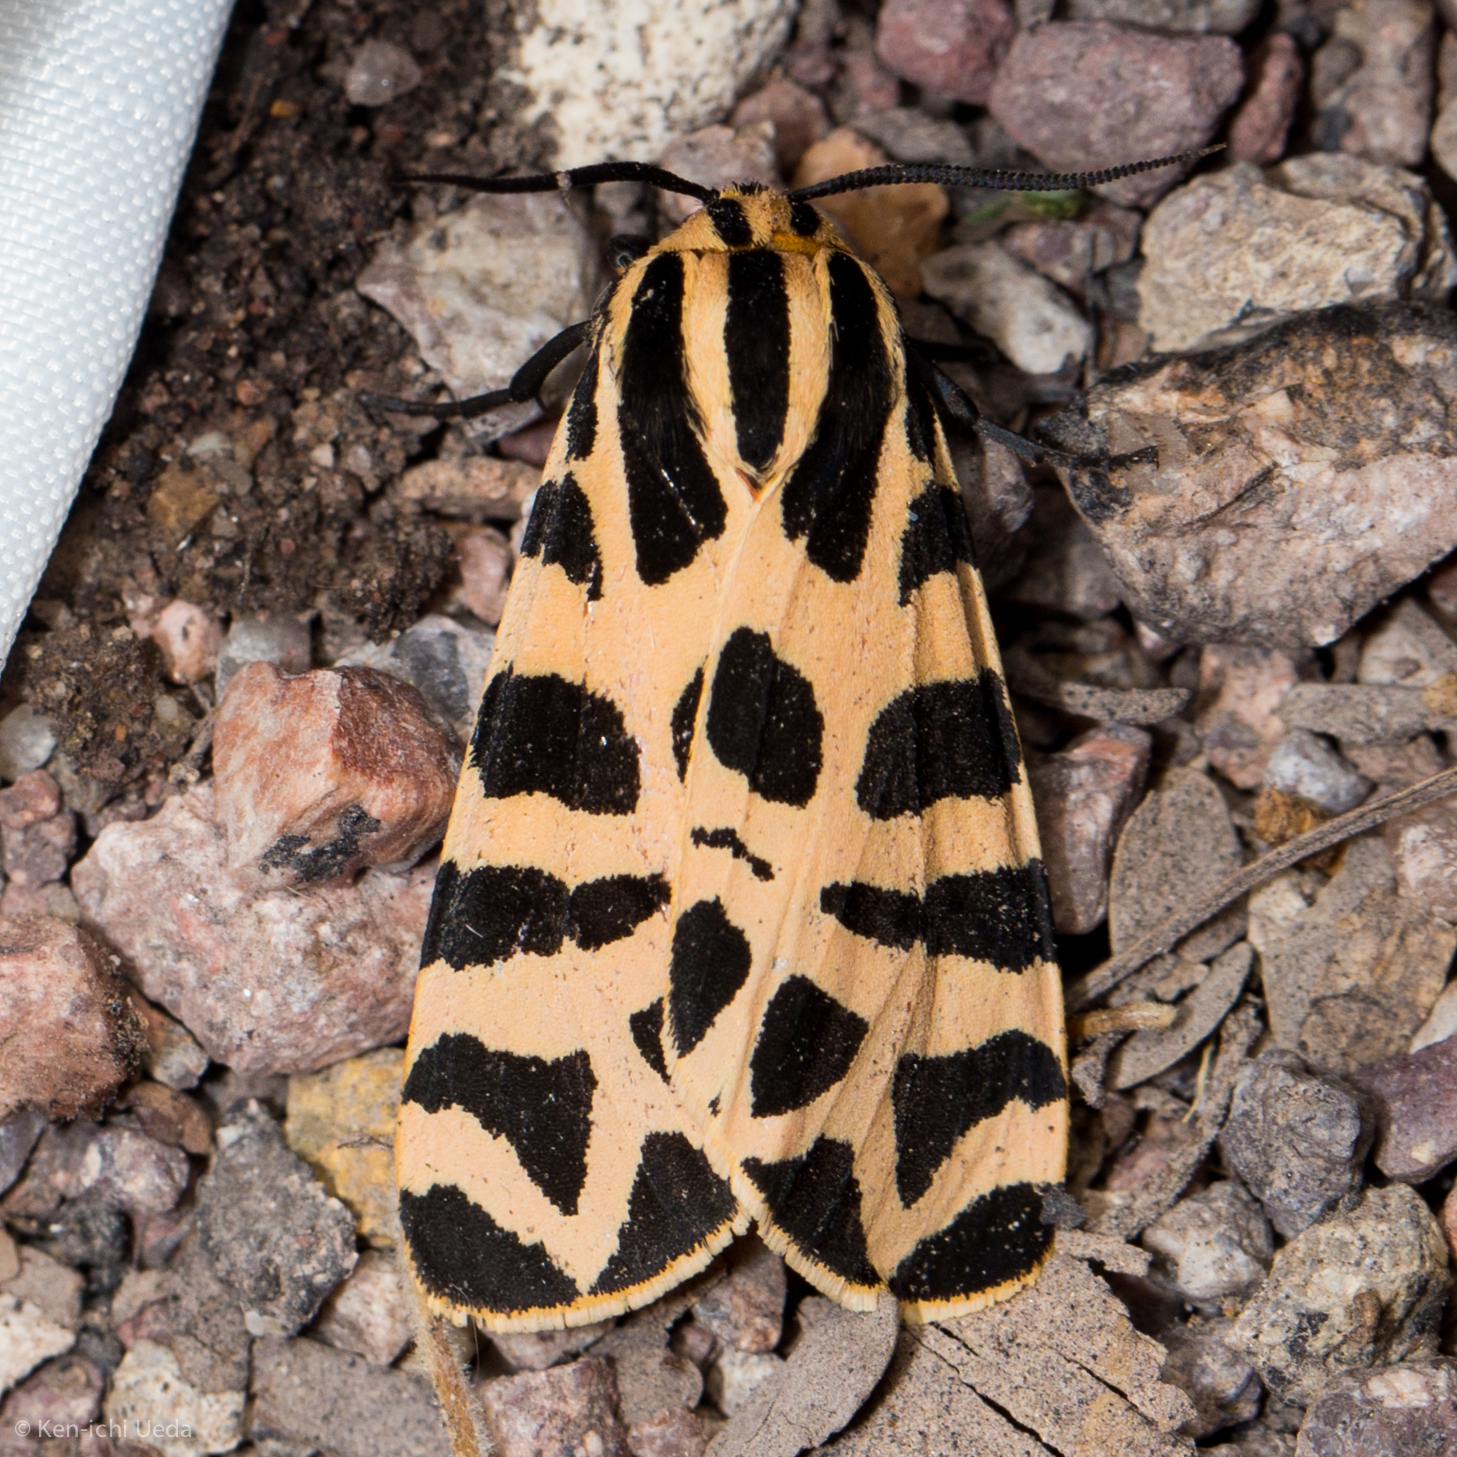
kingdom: Animalia
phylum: Arthropoda
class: Insecta
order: Lepidoptera
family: Erebidae
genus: Apantesis
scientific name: Apantesis incorrupta
